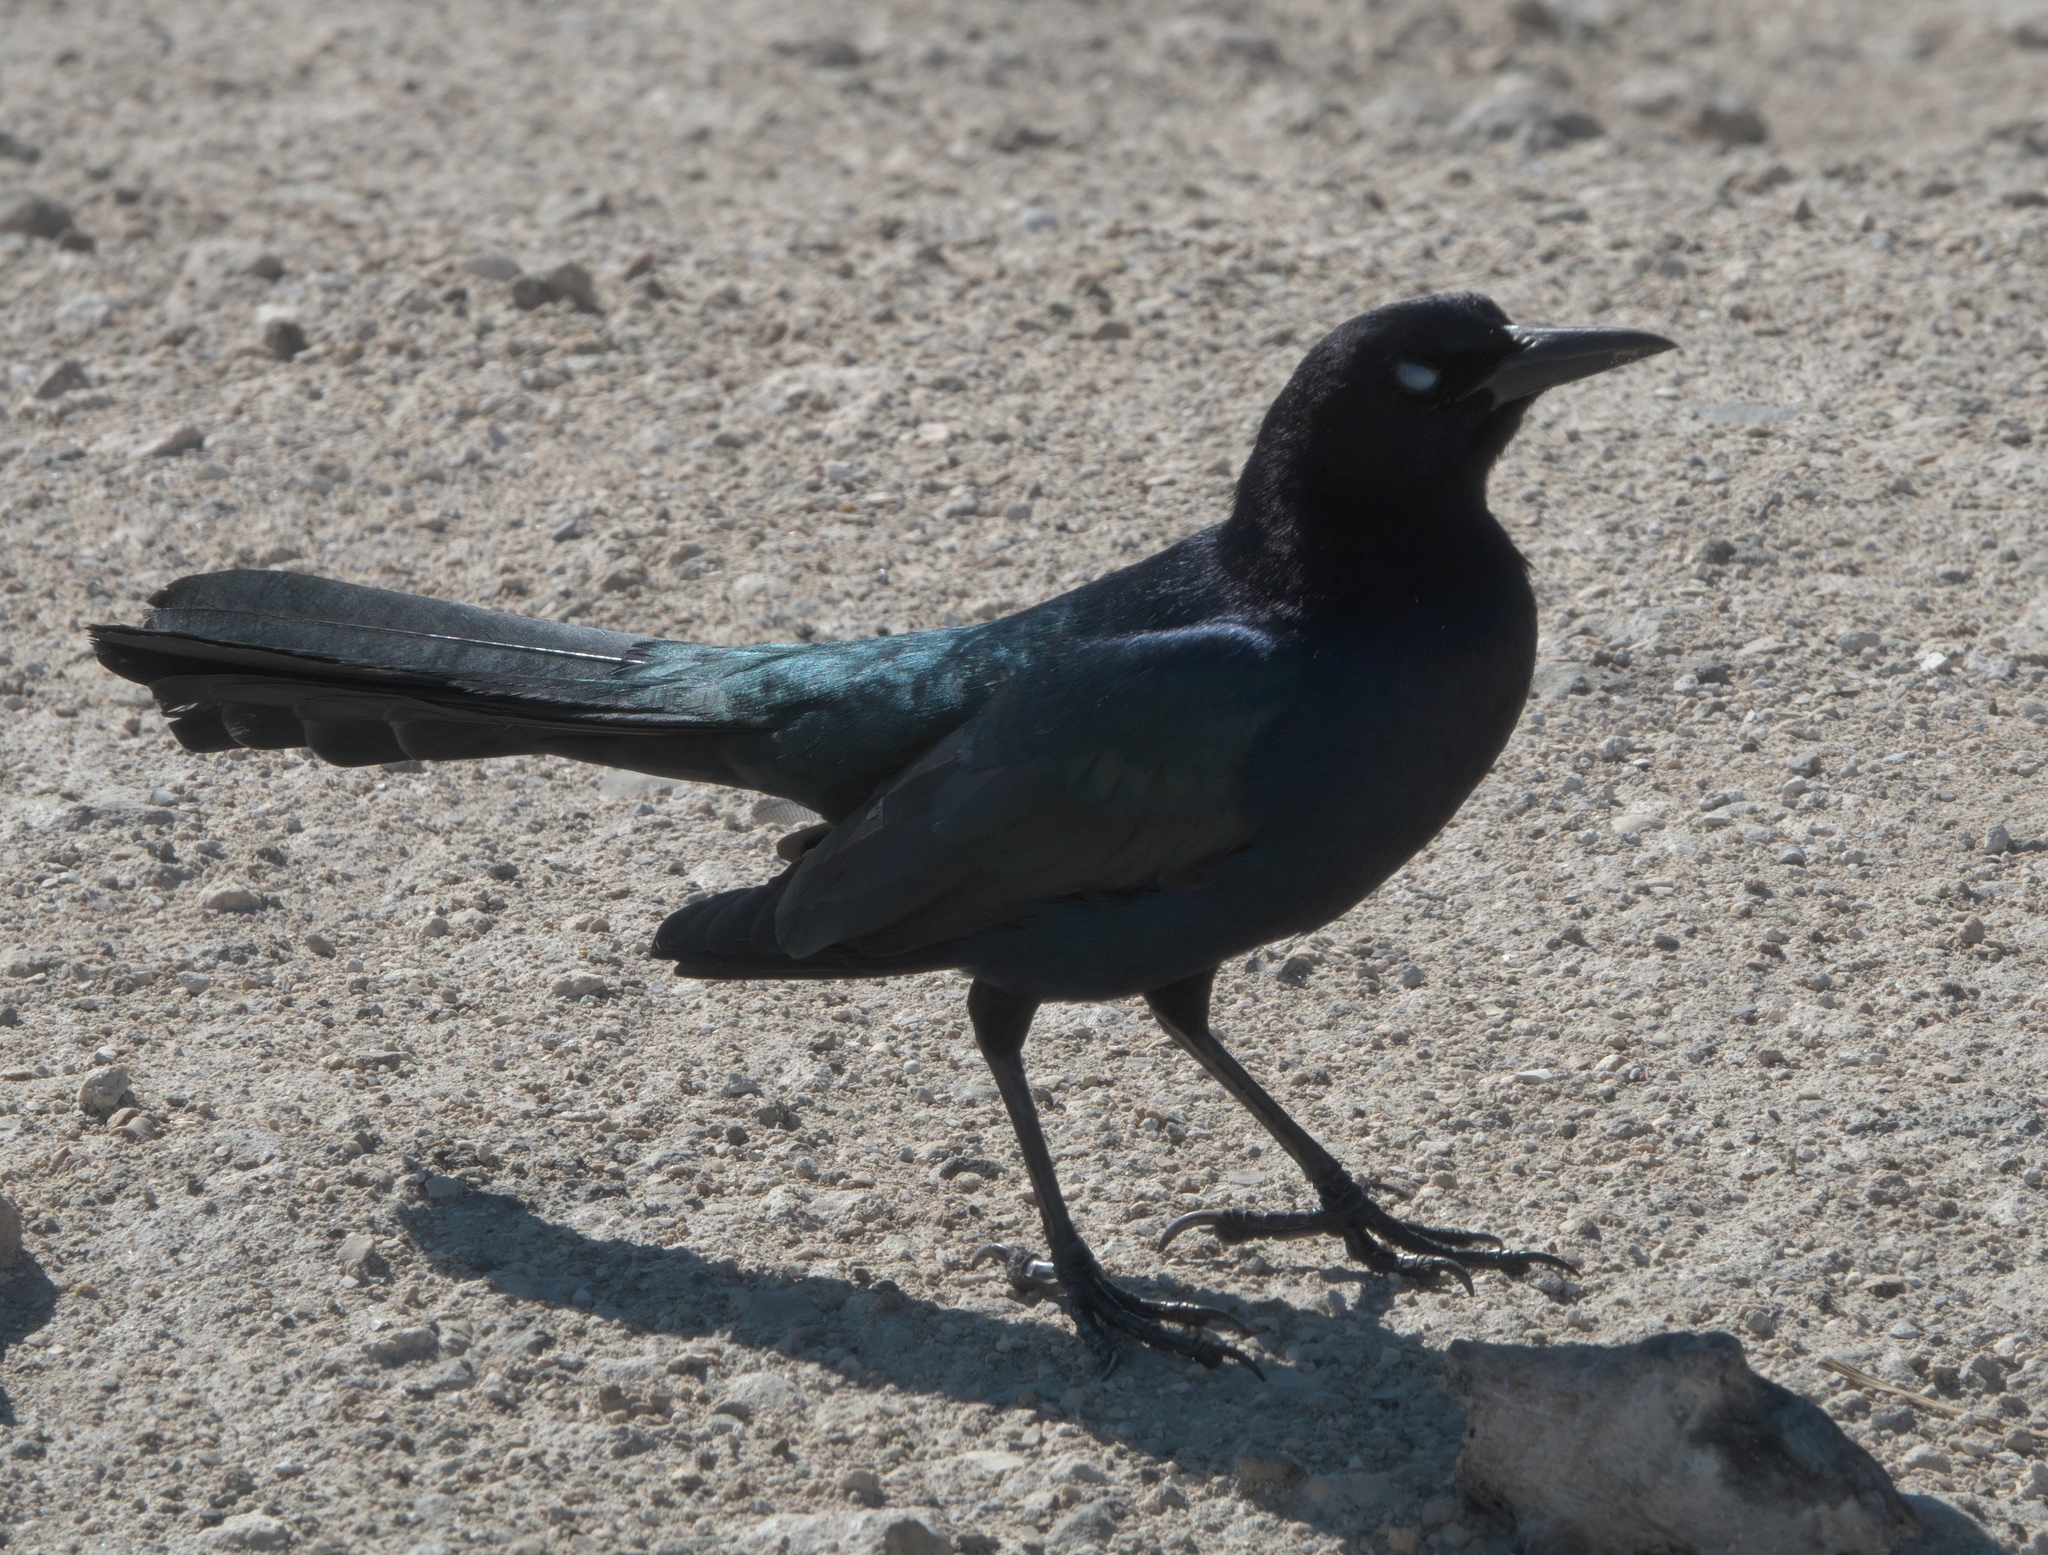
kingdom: Animalia
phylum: Chordata
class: Aves
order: Passeriformes
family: Icteridae
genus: Quiscalus
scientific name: Quiscalus major
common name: Boat-tailed grackle
